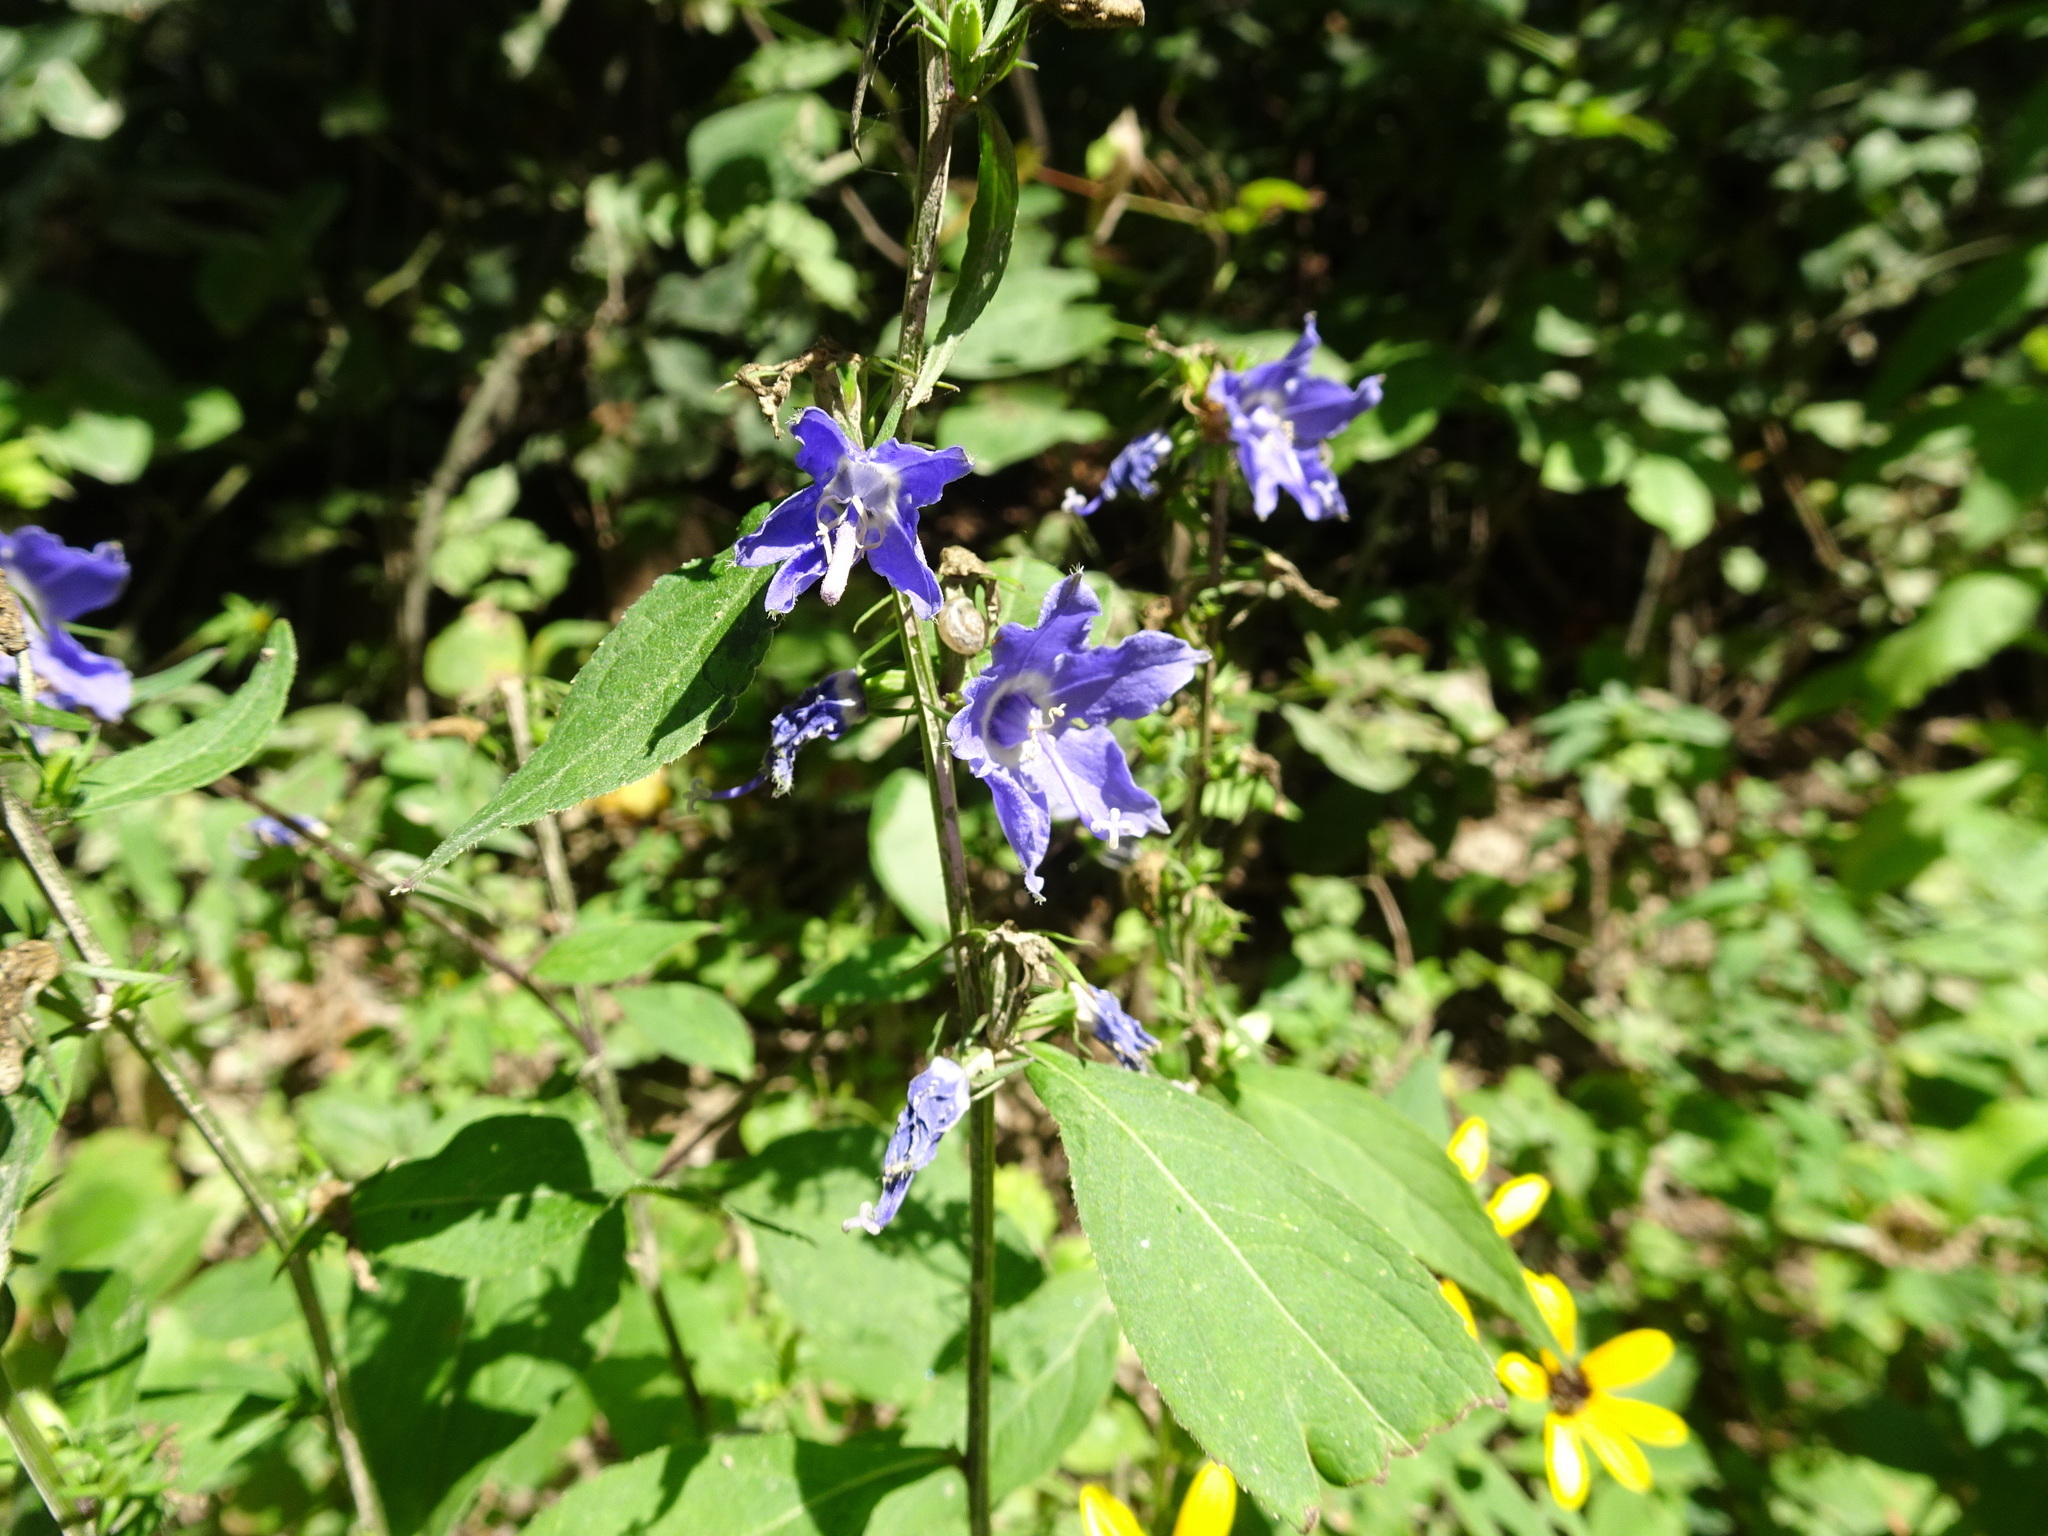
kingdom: Plantae
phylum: Tracheophyta
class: Magnoliopsida
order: Asterales
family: Campanulaceae
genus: Campanulastrum
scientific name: Campanulastrum americanum
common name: American bellflower
